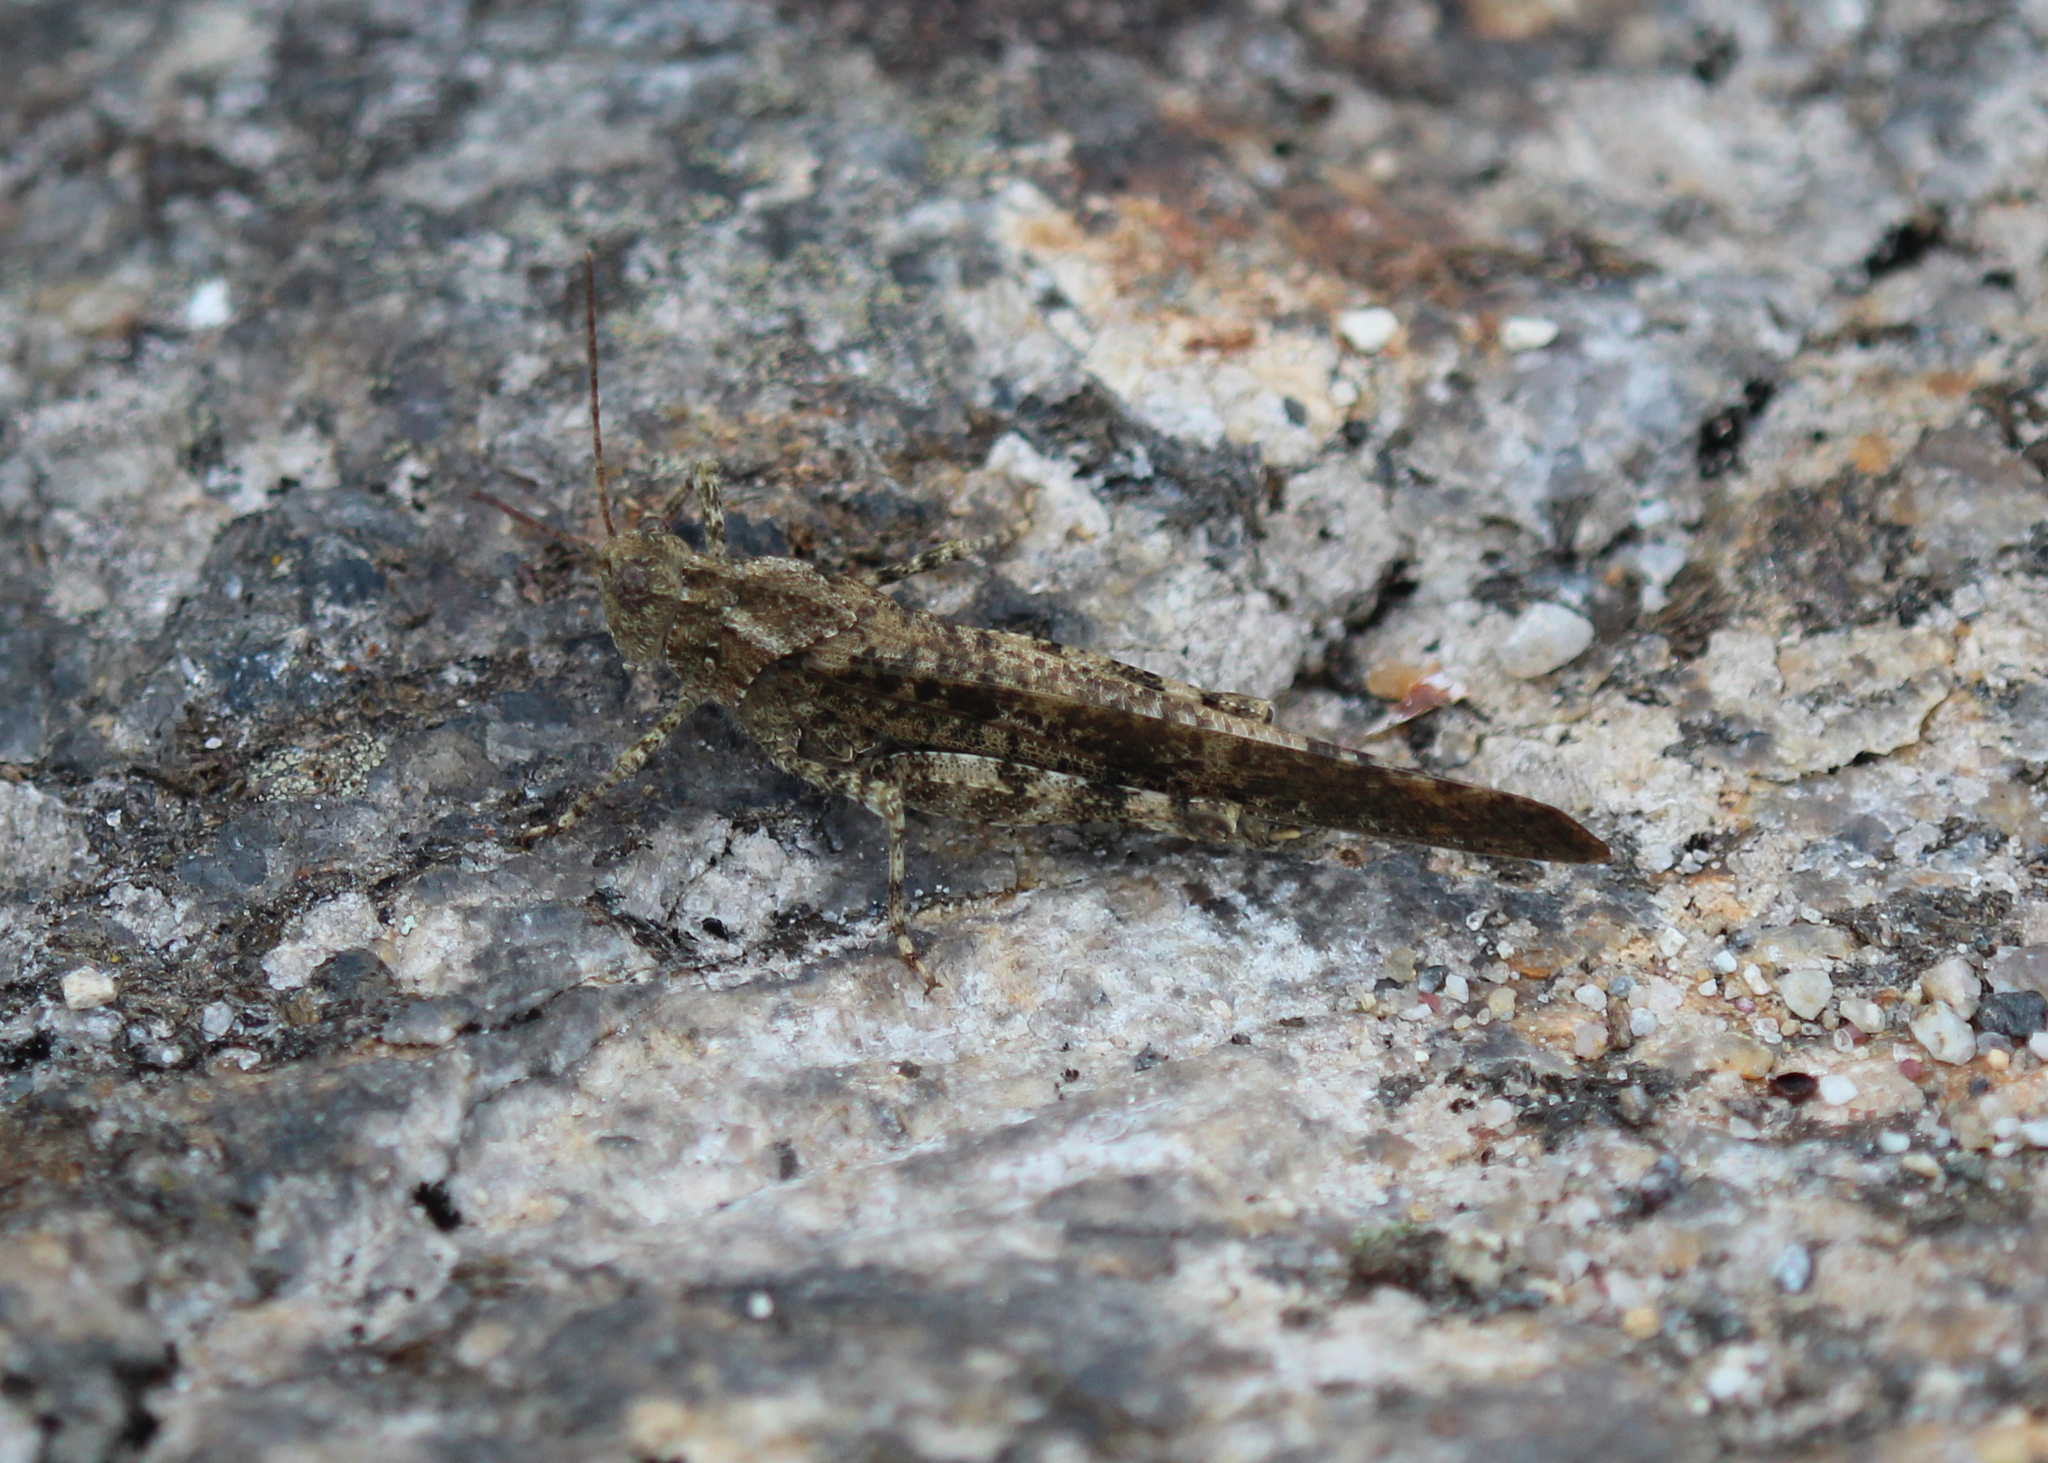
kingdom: Animalia
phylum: Arthropoda
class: Insecta
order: Orthoptera
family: Acrididae
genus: Dissosteira
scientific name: Dissosteira carolina
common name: Carolina grasshopper
